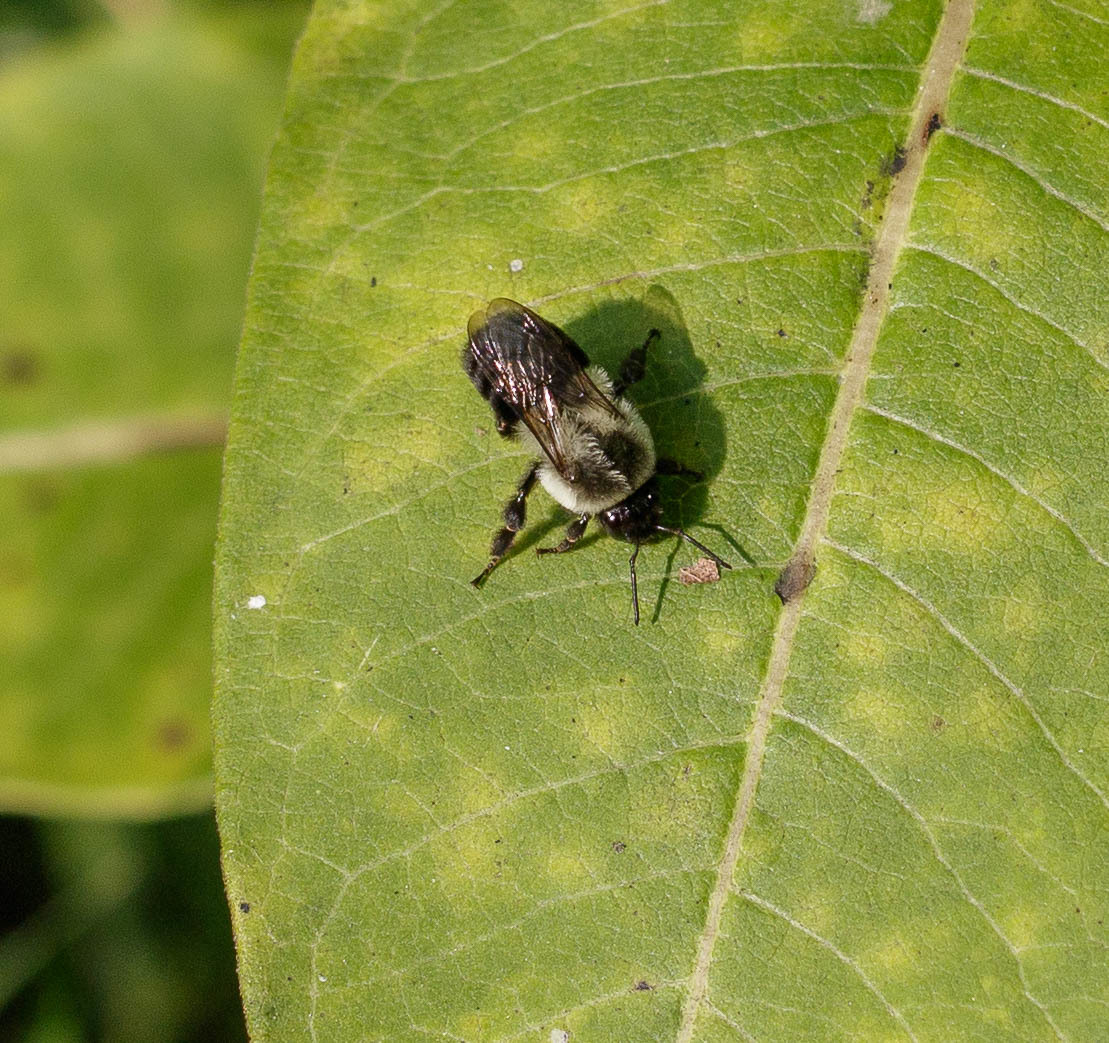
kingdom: Animalia
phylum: Arthropoda
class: Insecta
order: Hymenoptera
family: Apidae
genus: Bombus
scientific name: Bombus impatiens
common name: Common eastern bumble bee
